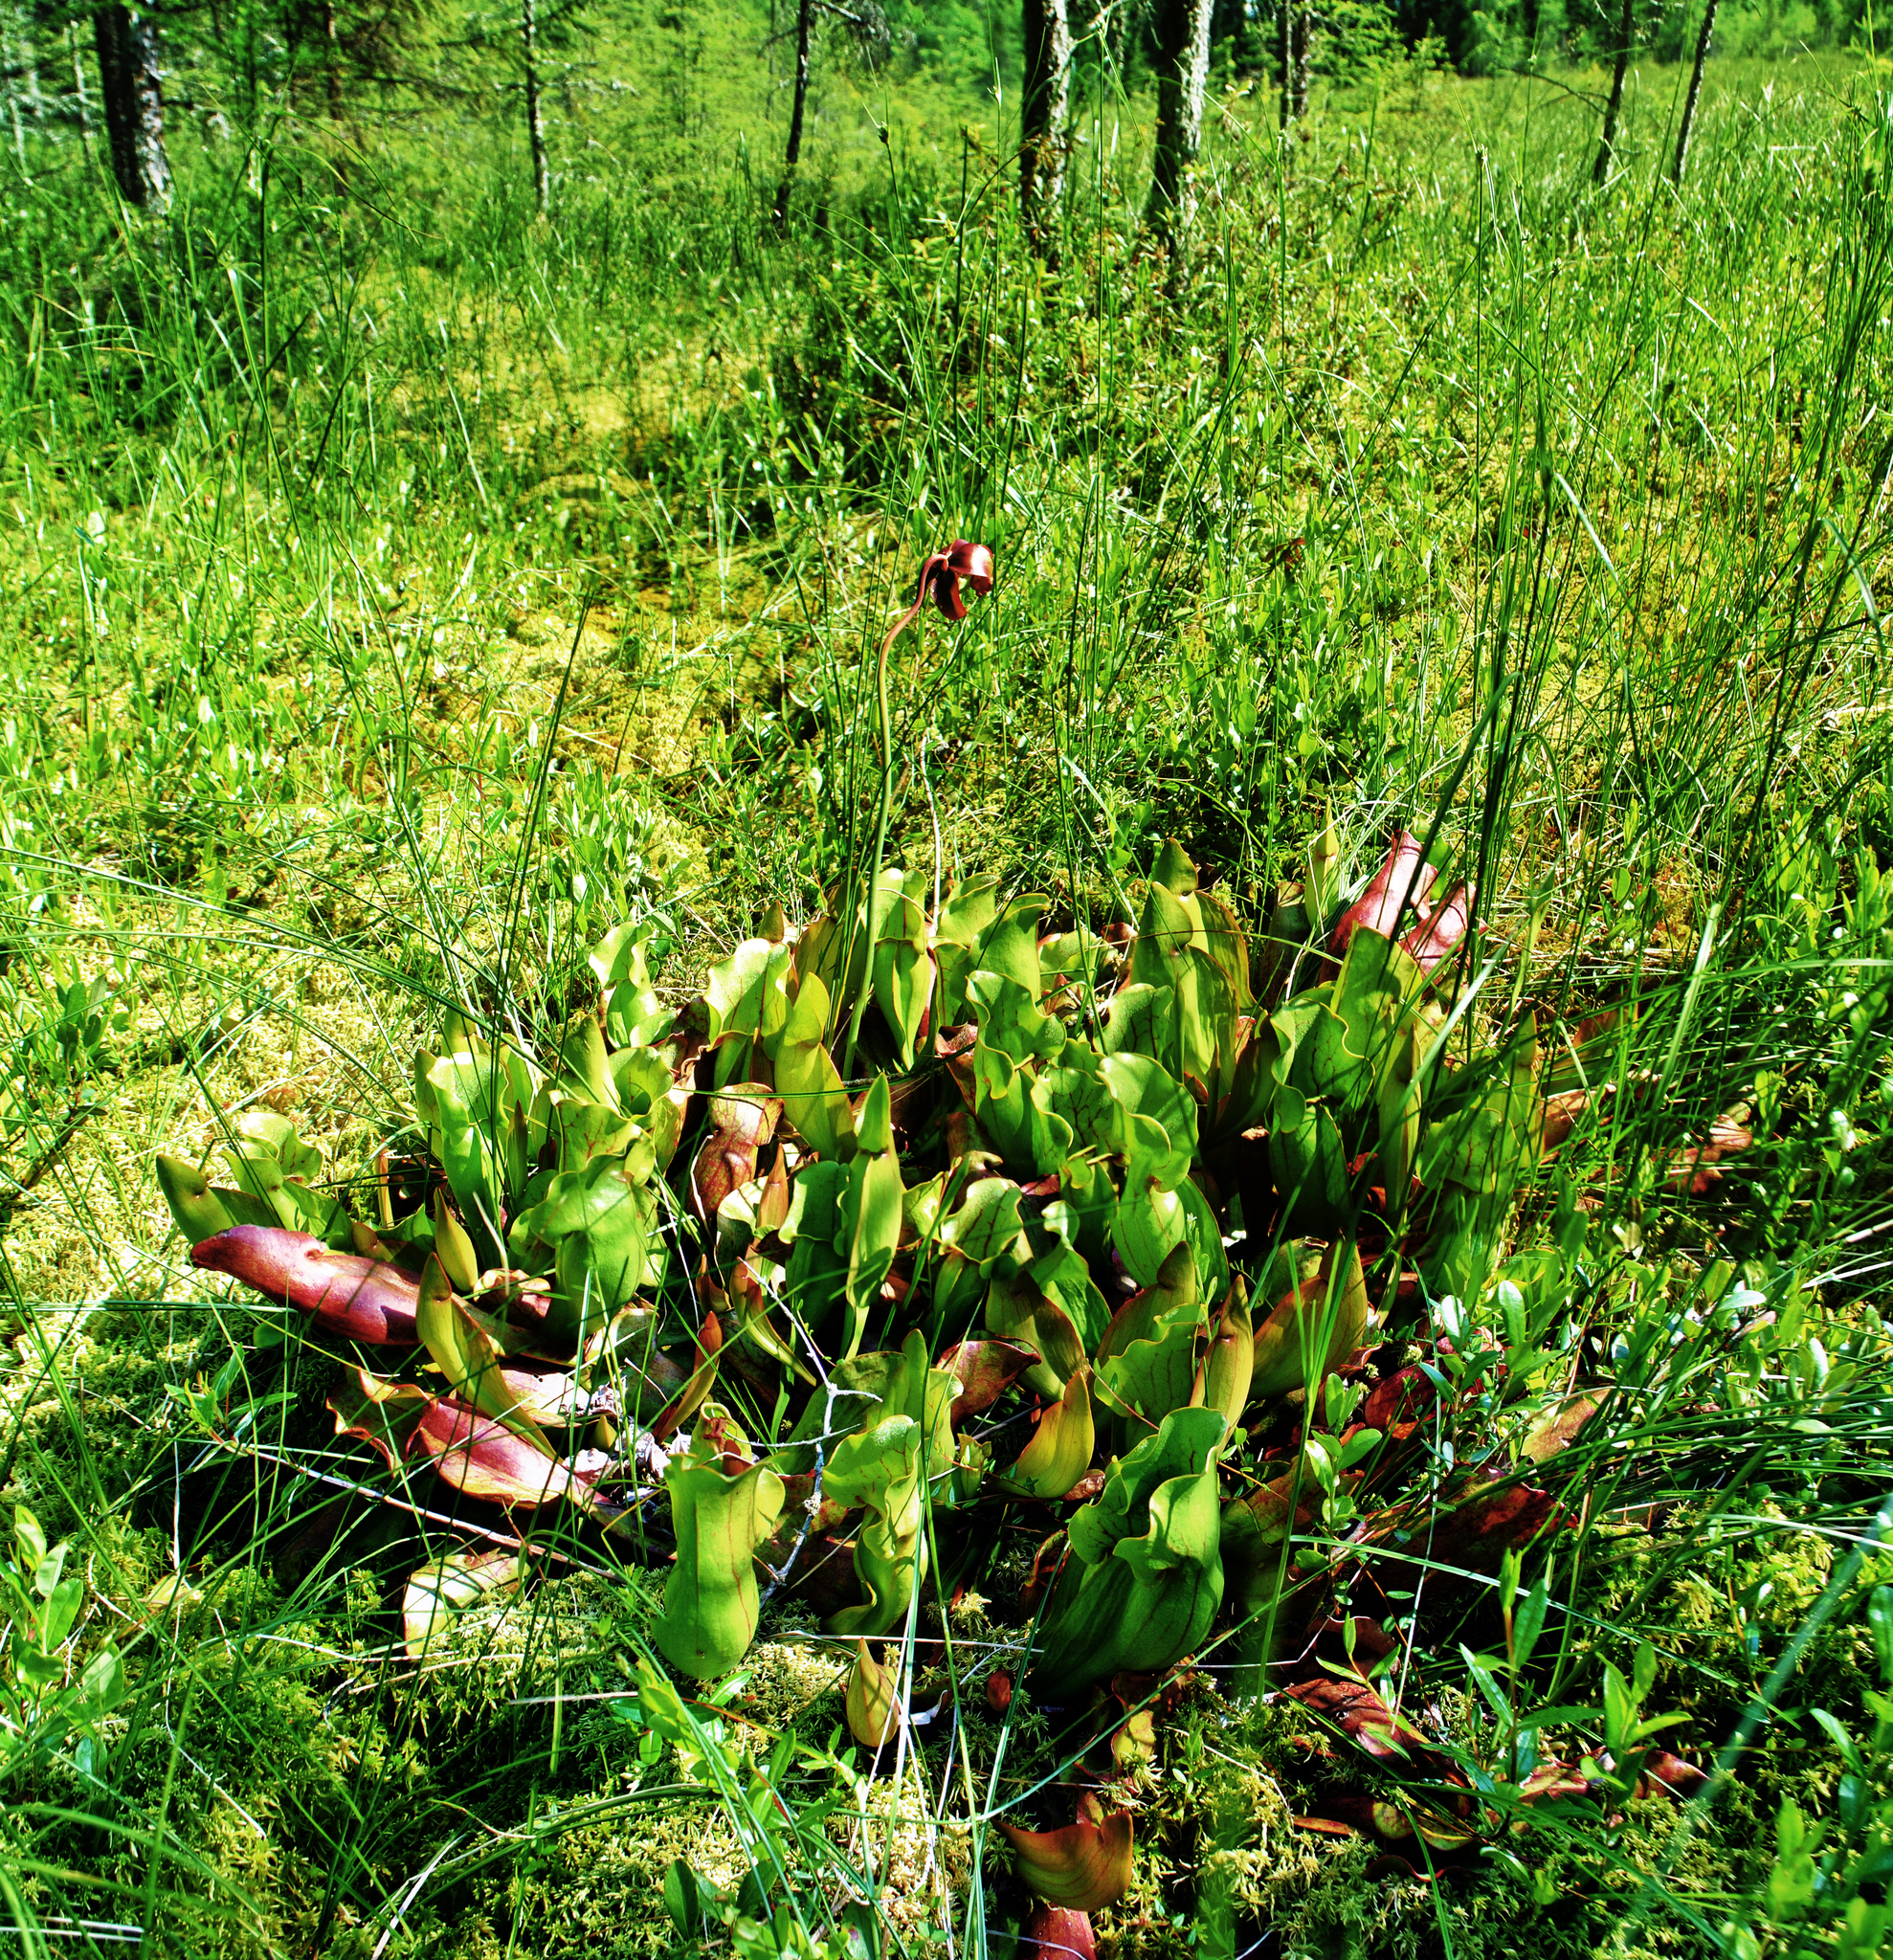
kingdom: Plantae
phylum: Tracheophyta
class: Magnoliopsida
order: Ericales
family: Sarraceniaceae
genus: Sarracenia
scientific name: Sarracenia purpurea
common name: Pitcherplant
